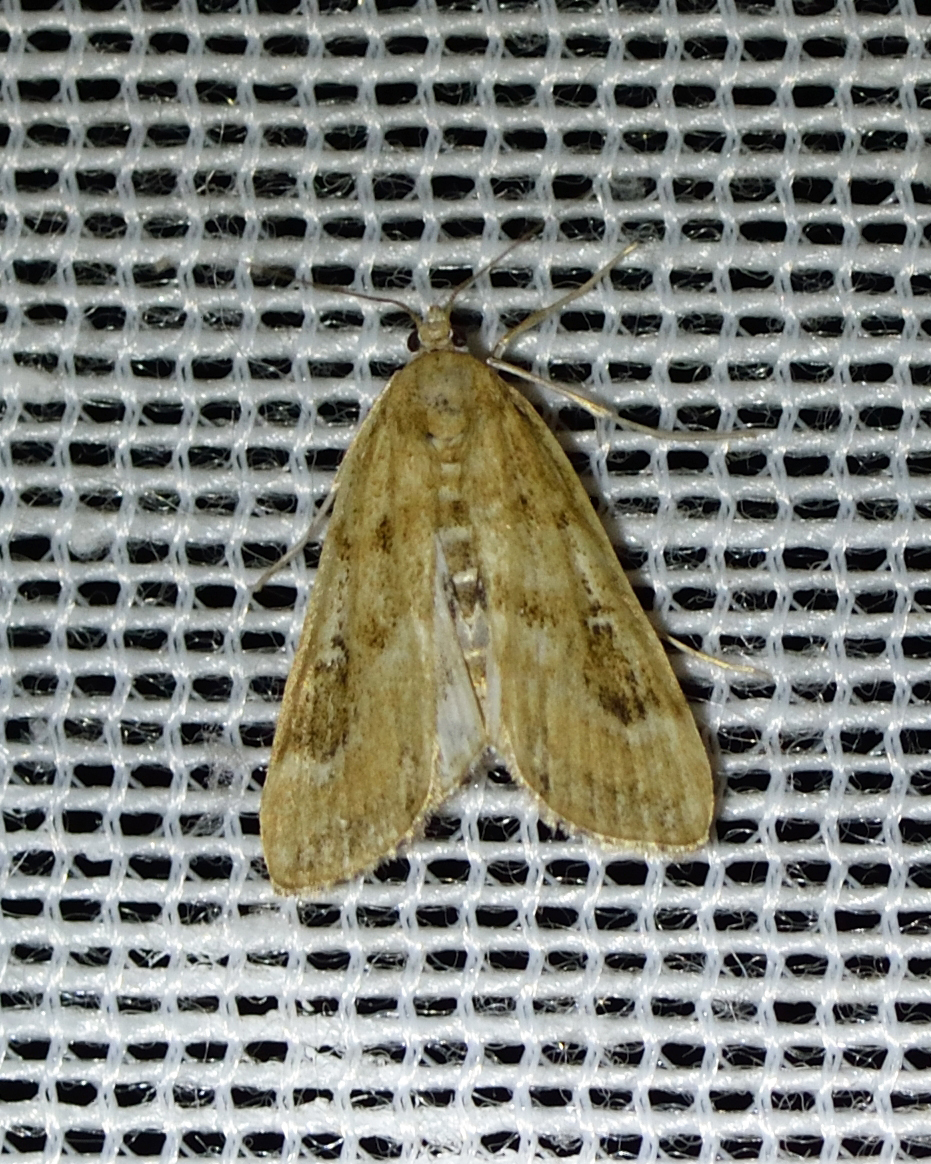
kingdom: Animalia
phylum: Arthropoda
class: Insecta
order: Lepidoptera
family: Crambidae
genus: Parapoynx
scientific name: Parapoynx stratiotata
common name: Ringed china-mark
